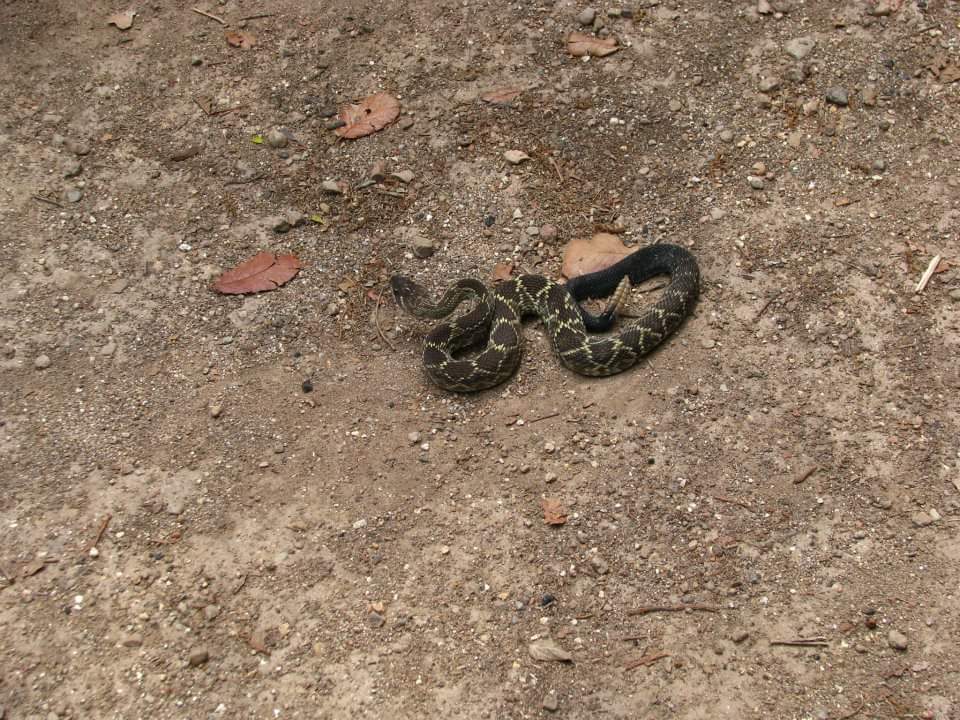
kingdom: Animalia
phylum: Chordata
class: Squamata
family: Viperidae
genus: Crotalus
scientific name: Crotalus molossus
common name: Black tailed rattlesnake
